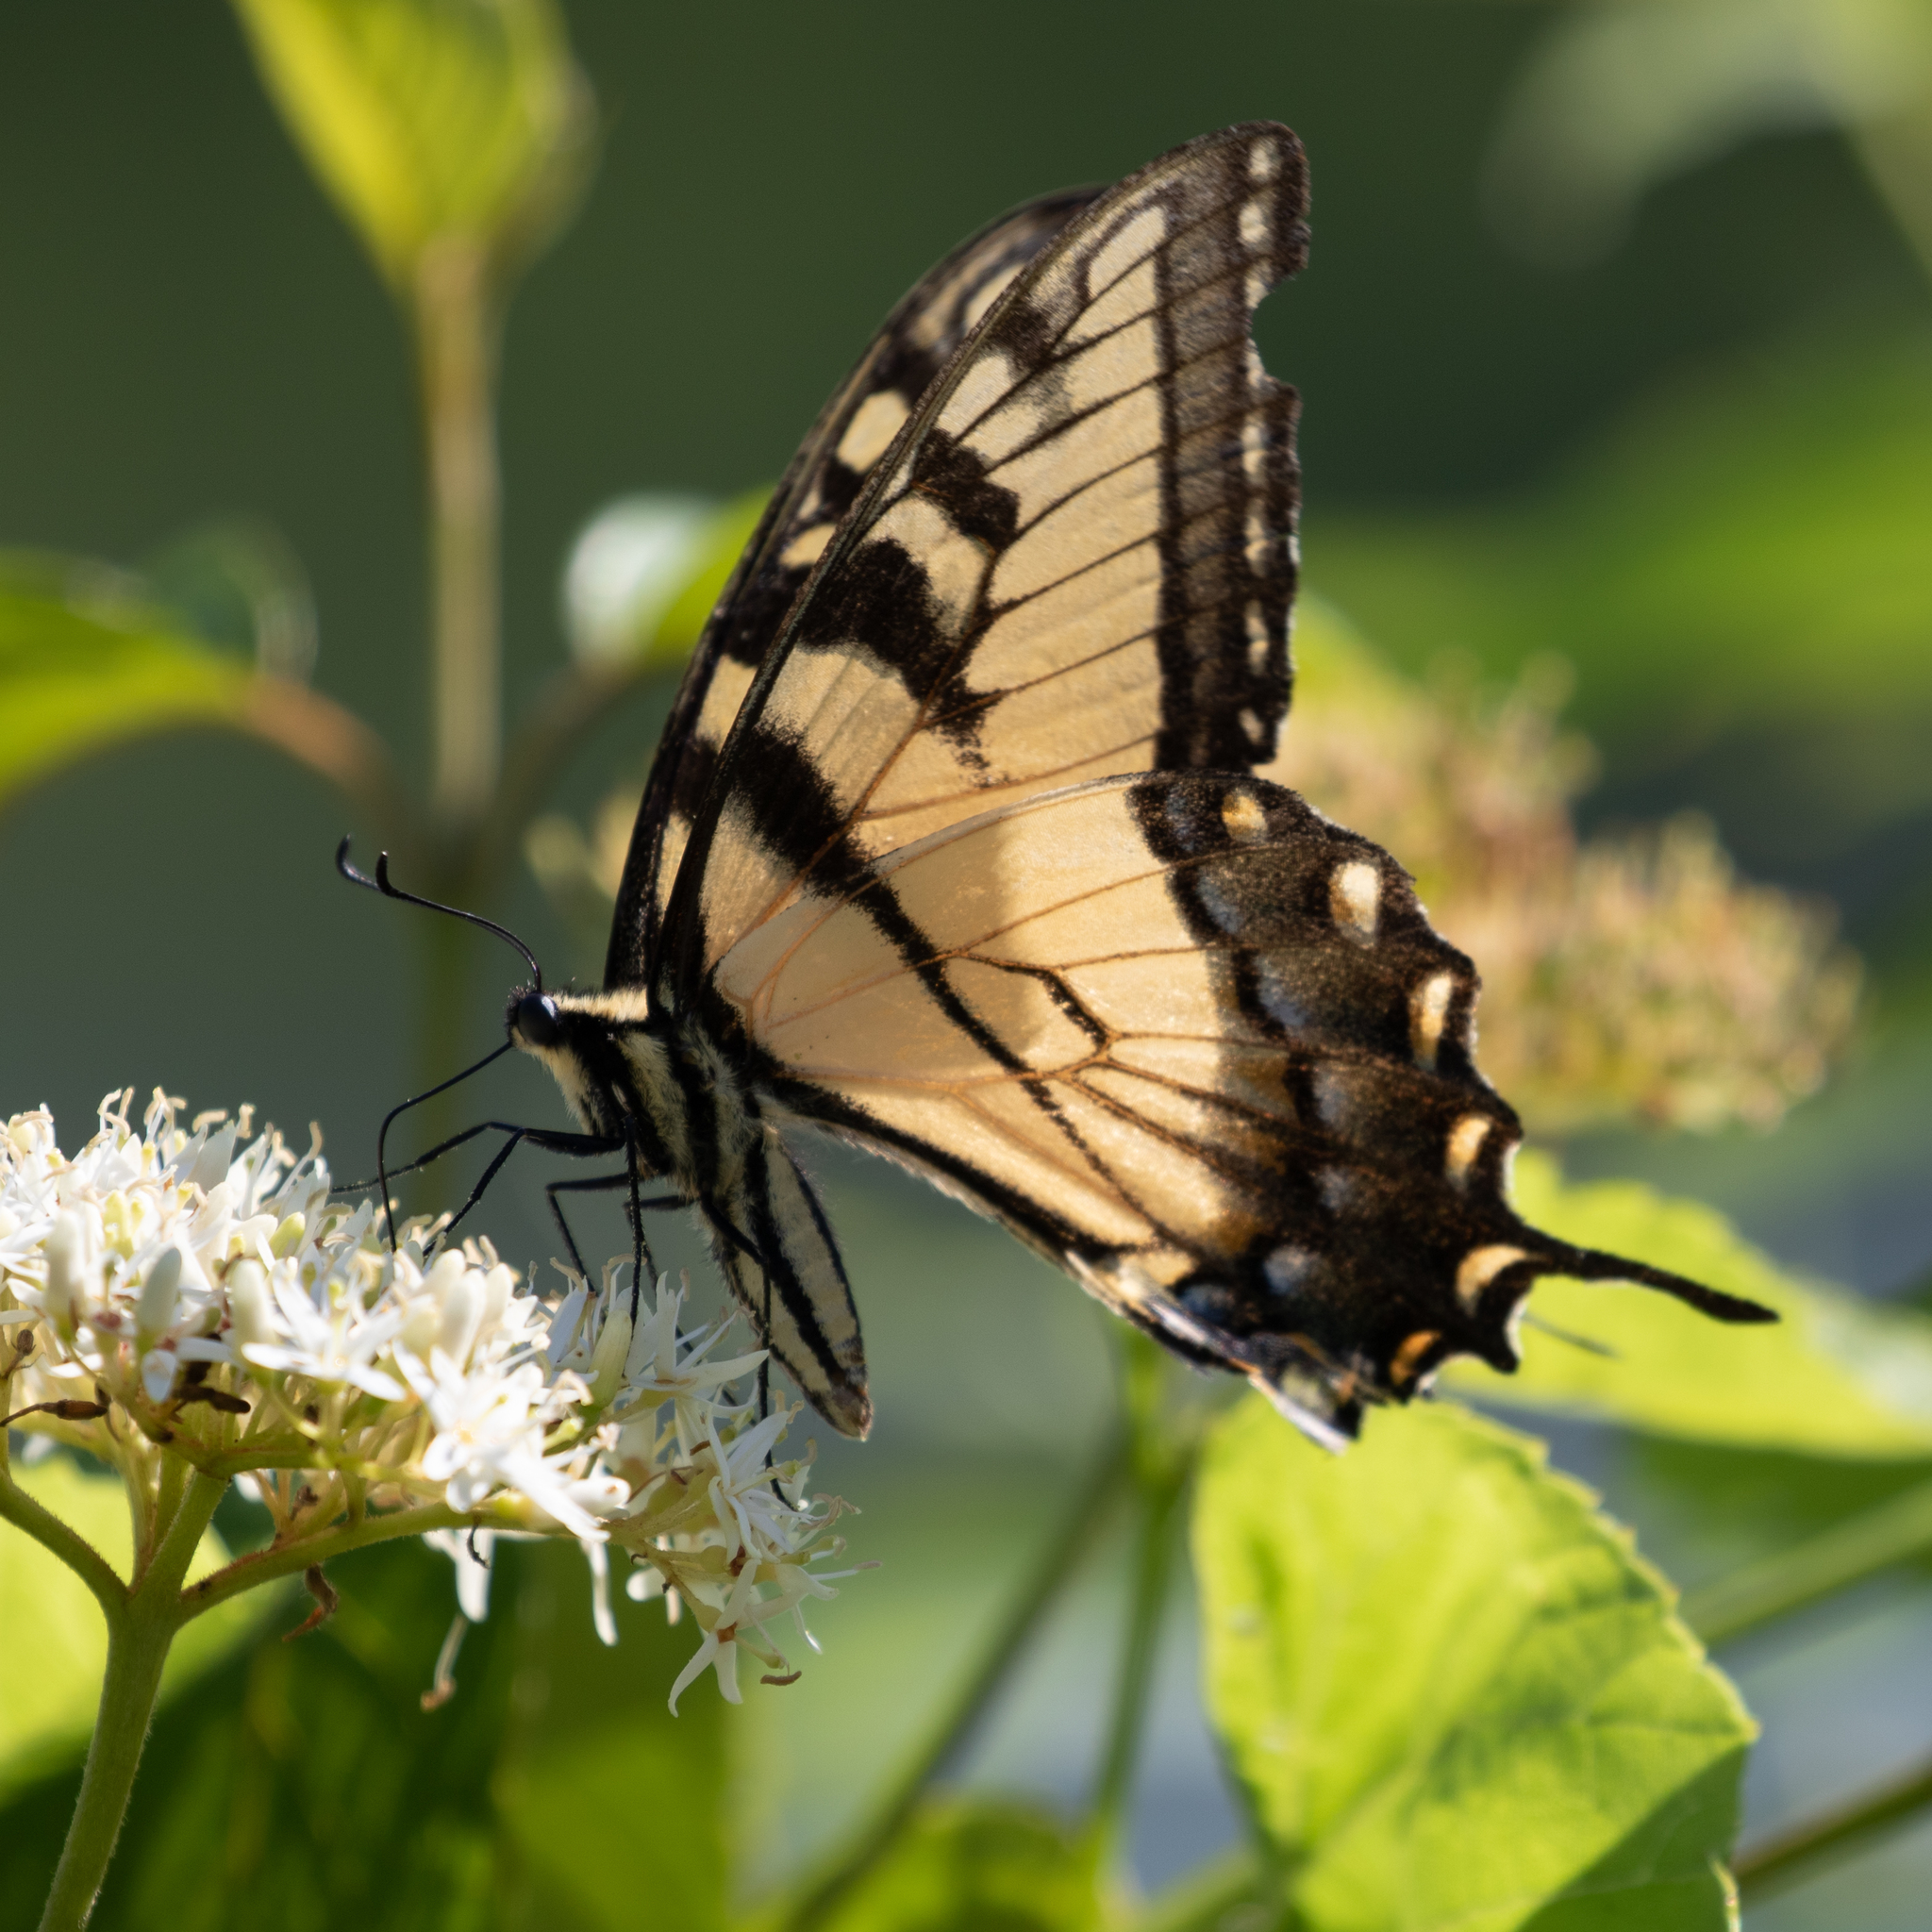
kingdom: Animalia
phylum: Arthropoda
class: Insecta
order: Lepidoptera
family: Papilionidae
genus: Papilio
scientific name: Papilio glaucus
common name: Tiger swallowtail
